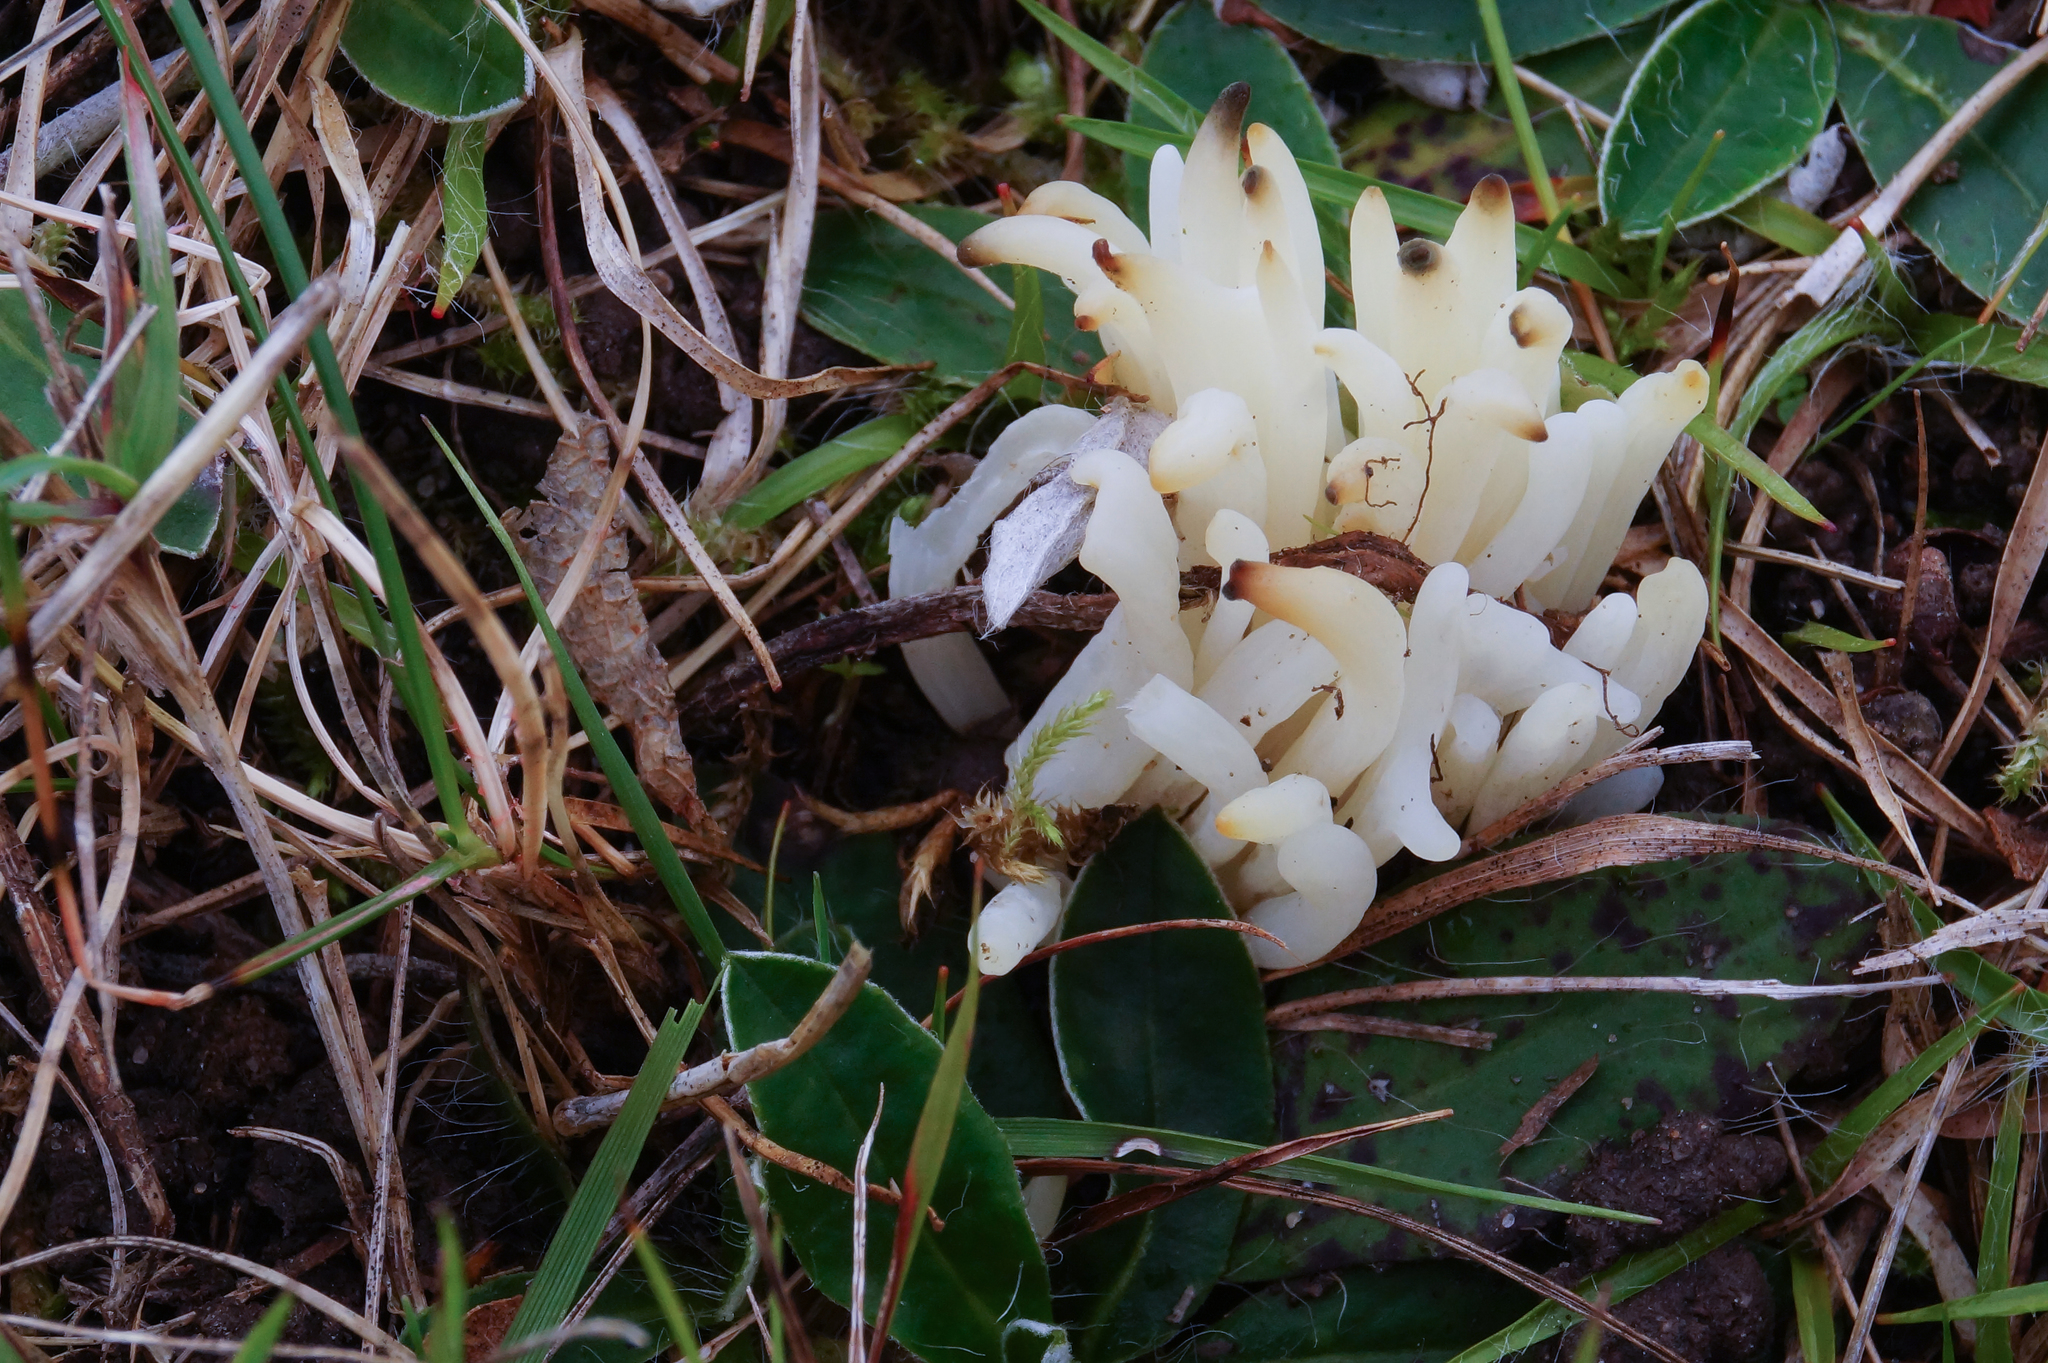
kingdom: Fungi
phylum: Basidiomycota
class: Agaricomycetes
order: Agaricales
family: Clavariaceae
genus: Clavaria
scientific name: Clavaria fragilis
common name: White spindles
